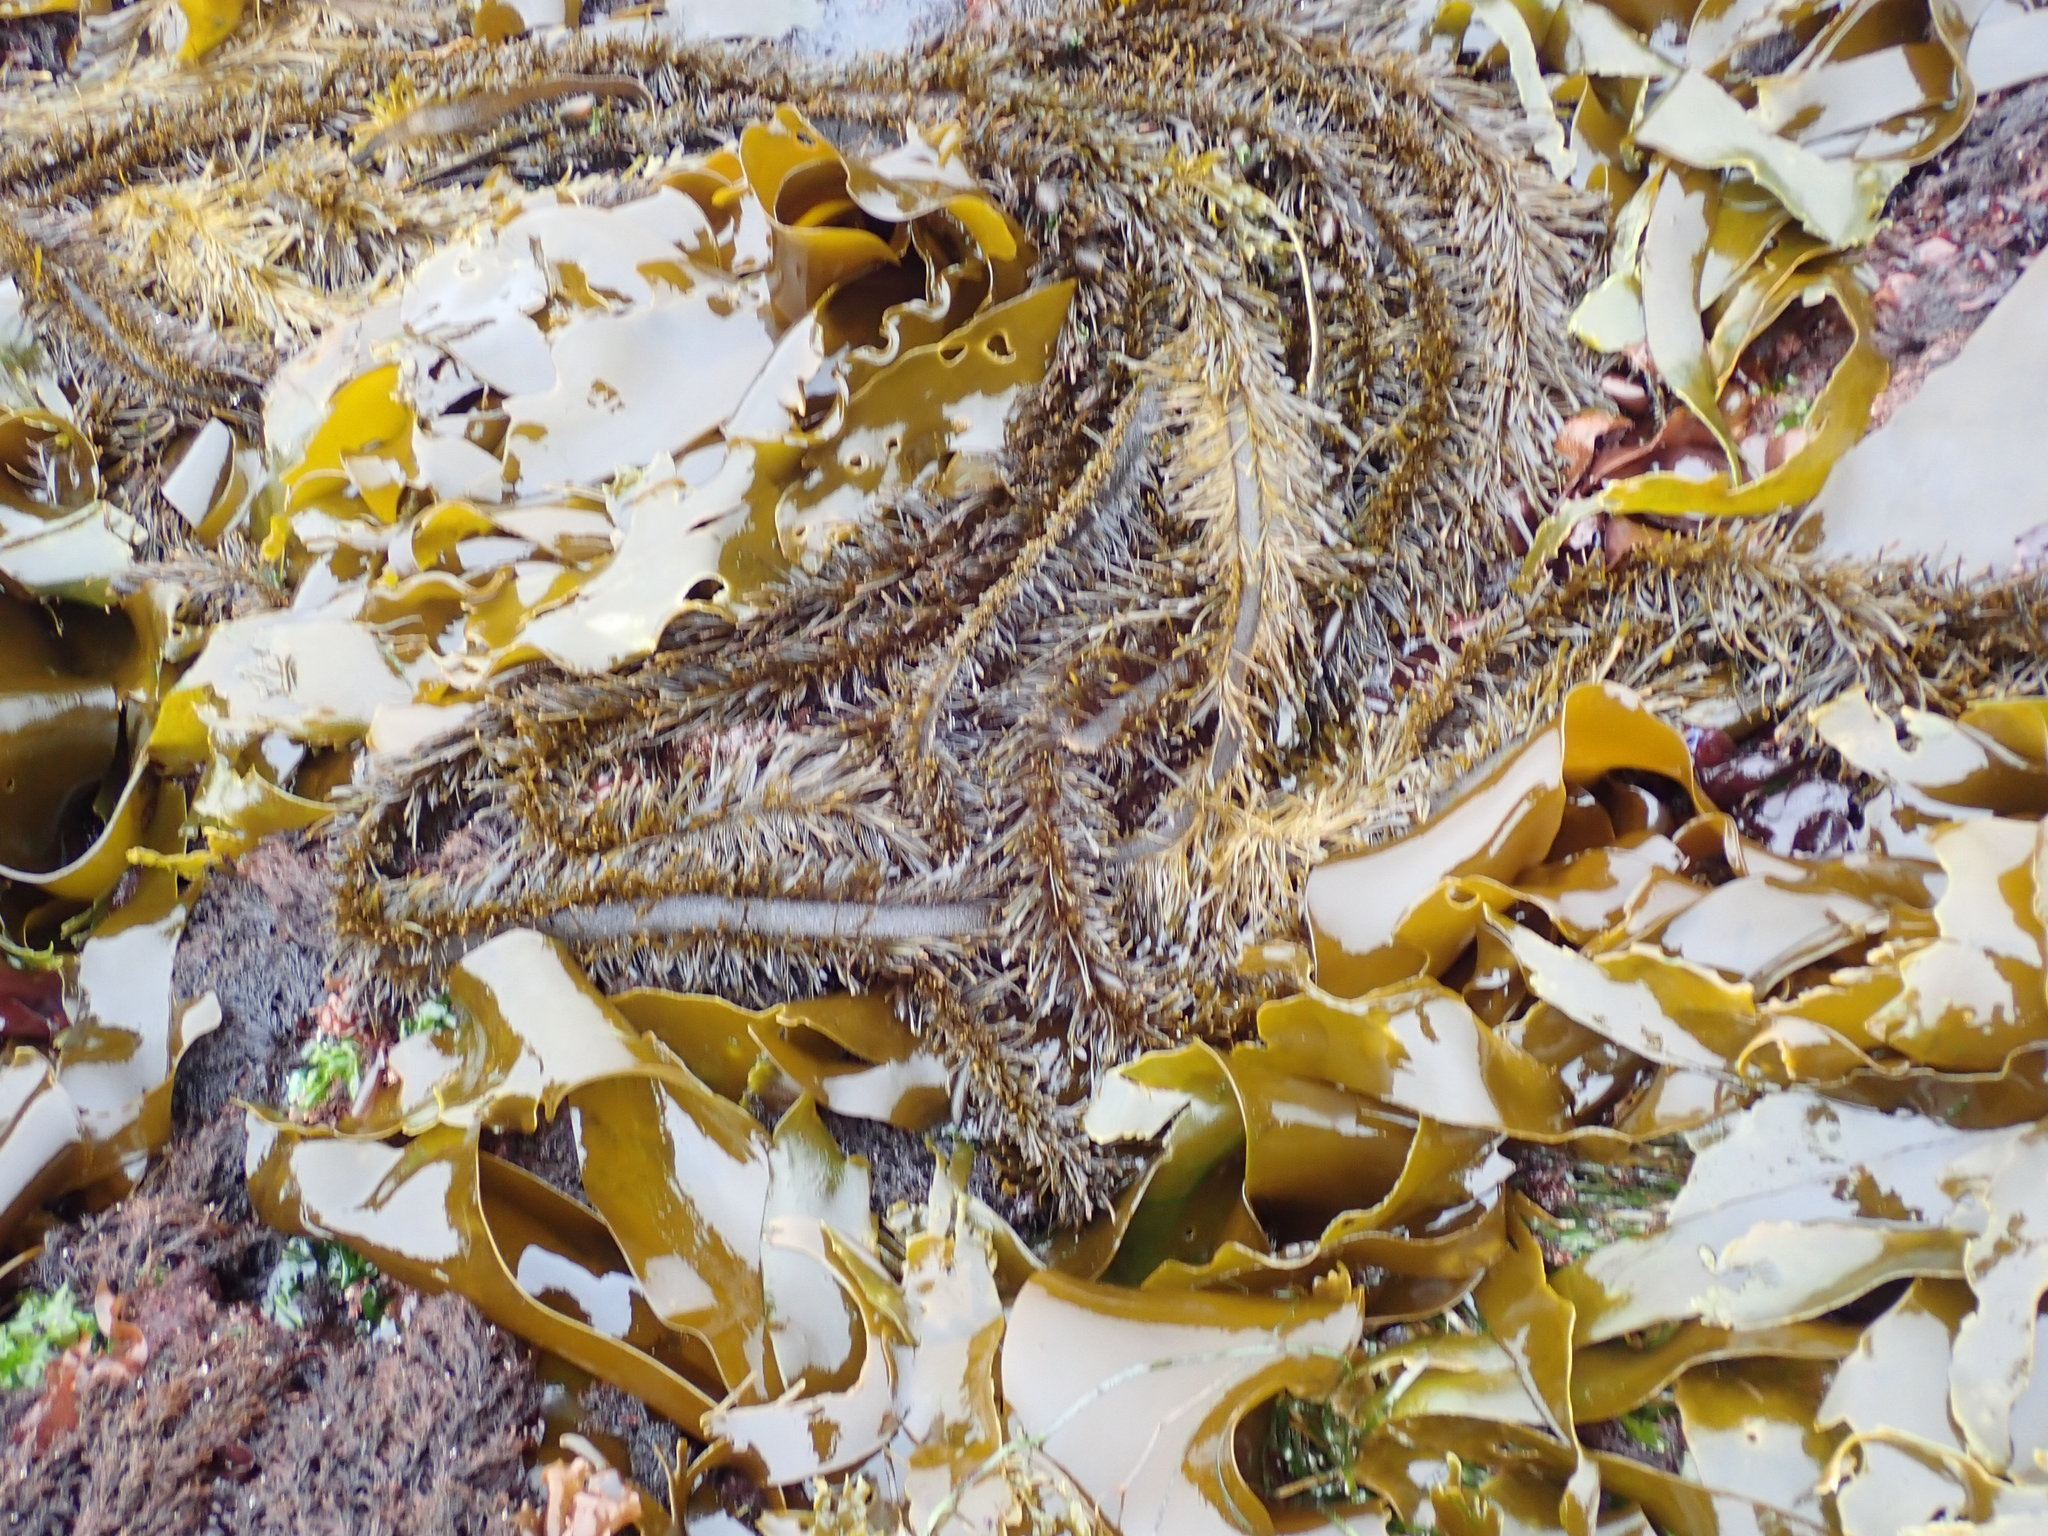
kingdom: Chromista
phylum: Ochrophyta
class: Phaeophyceae
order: Laminariales
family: Lessoniaceae
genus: Egregia
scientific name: Egregia menziesii
